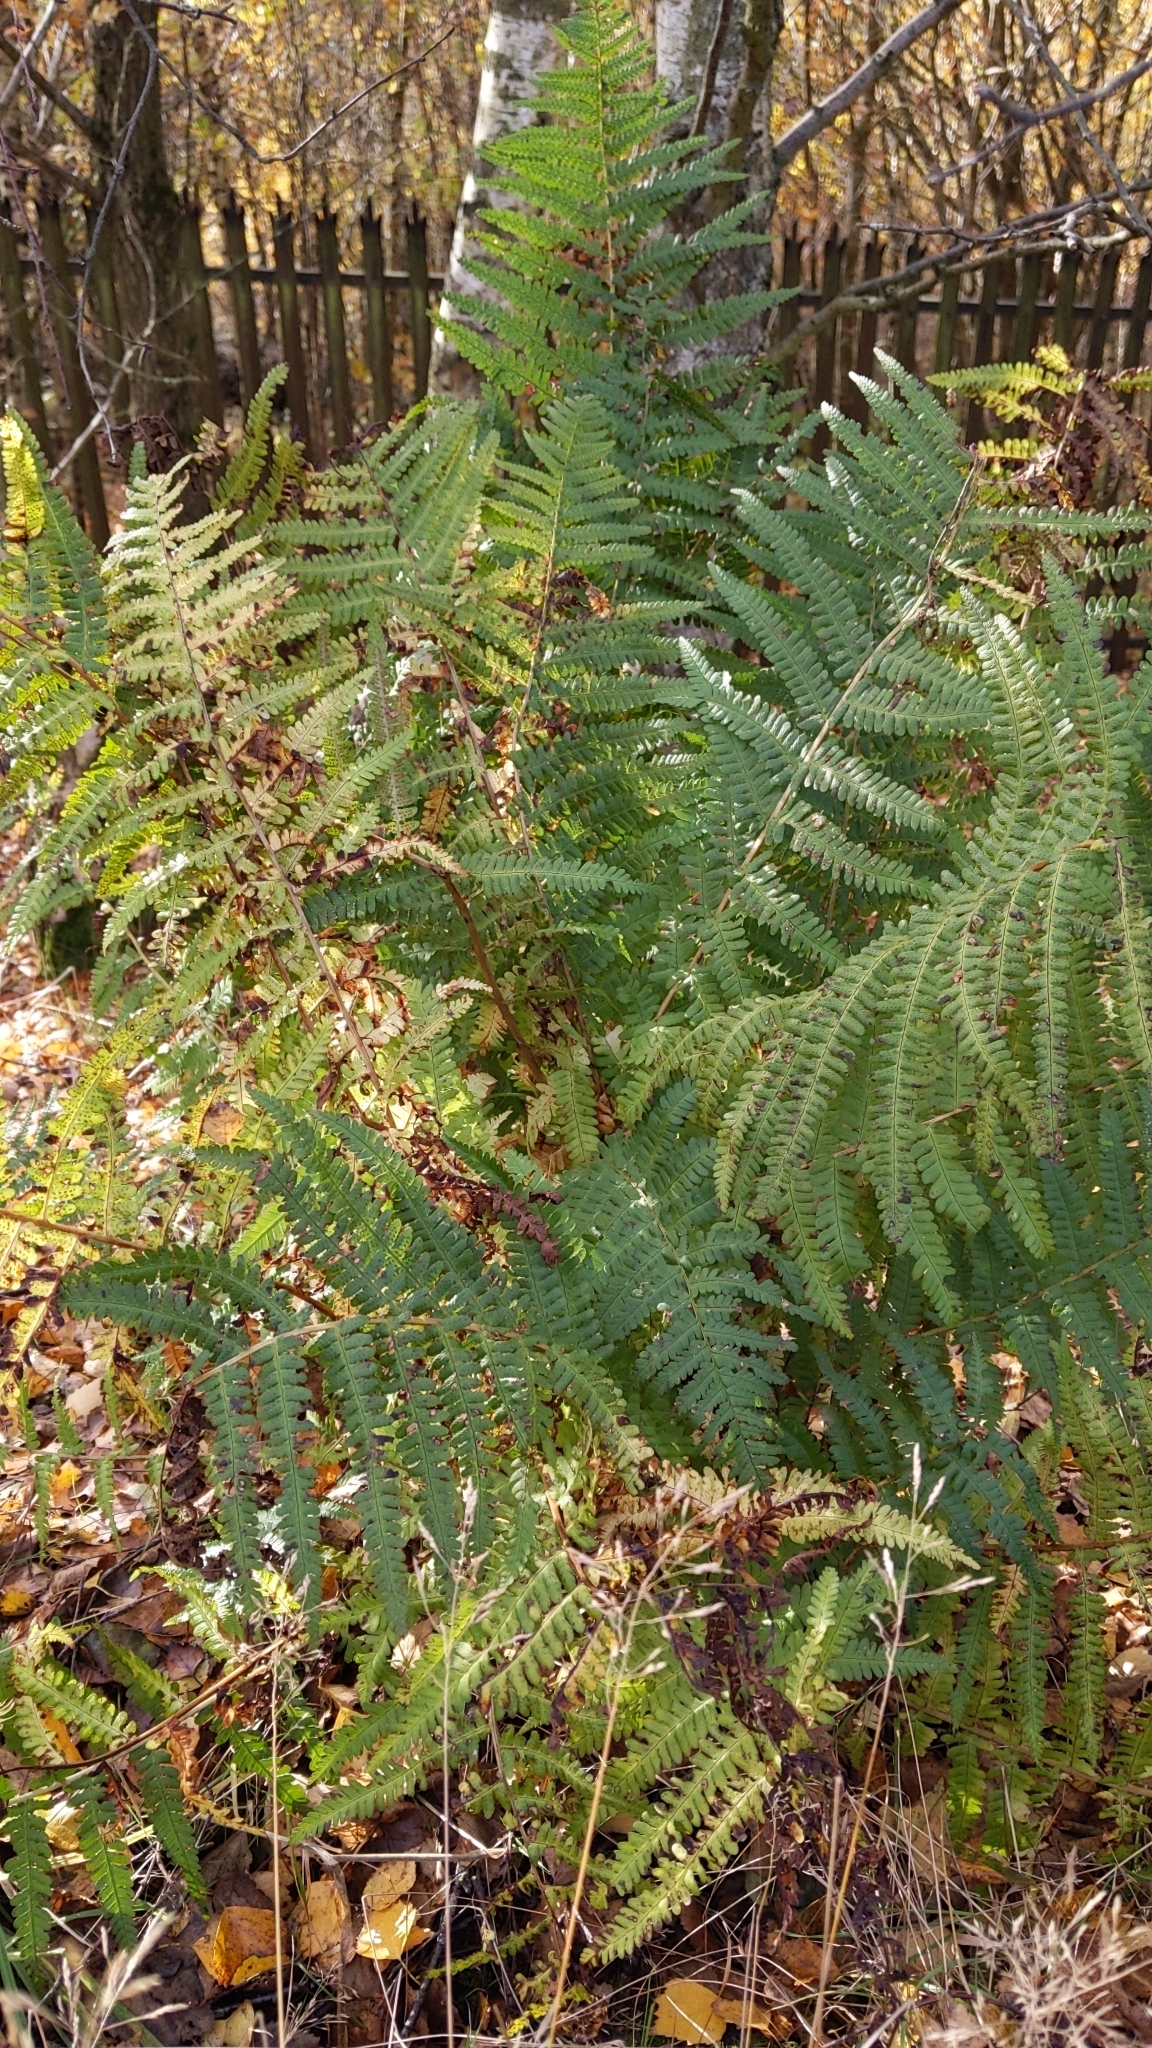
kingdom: Plantae
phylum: Tracheophyta
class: Polypodiopsida
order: Polypodiales
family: Dennstaedtiaceae
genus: Pteridium
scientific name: Pteridium aquilinum
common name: Bracken
